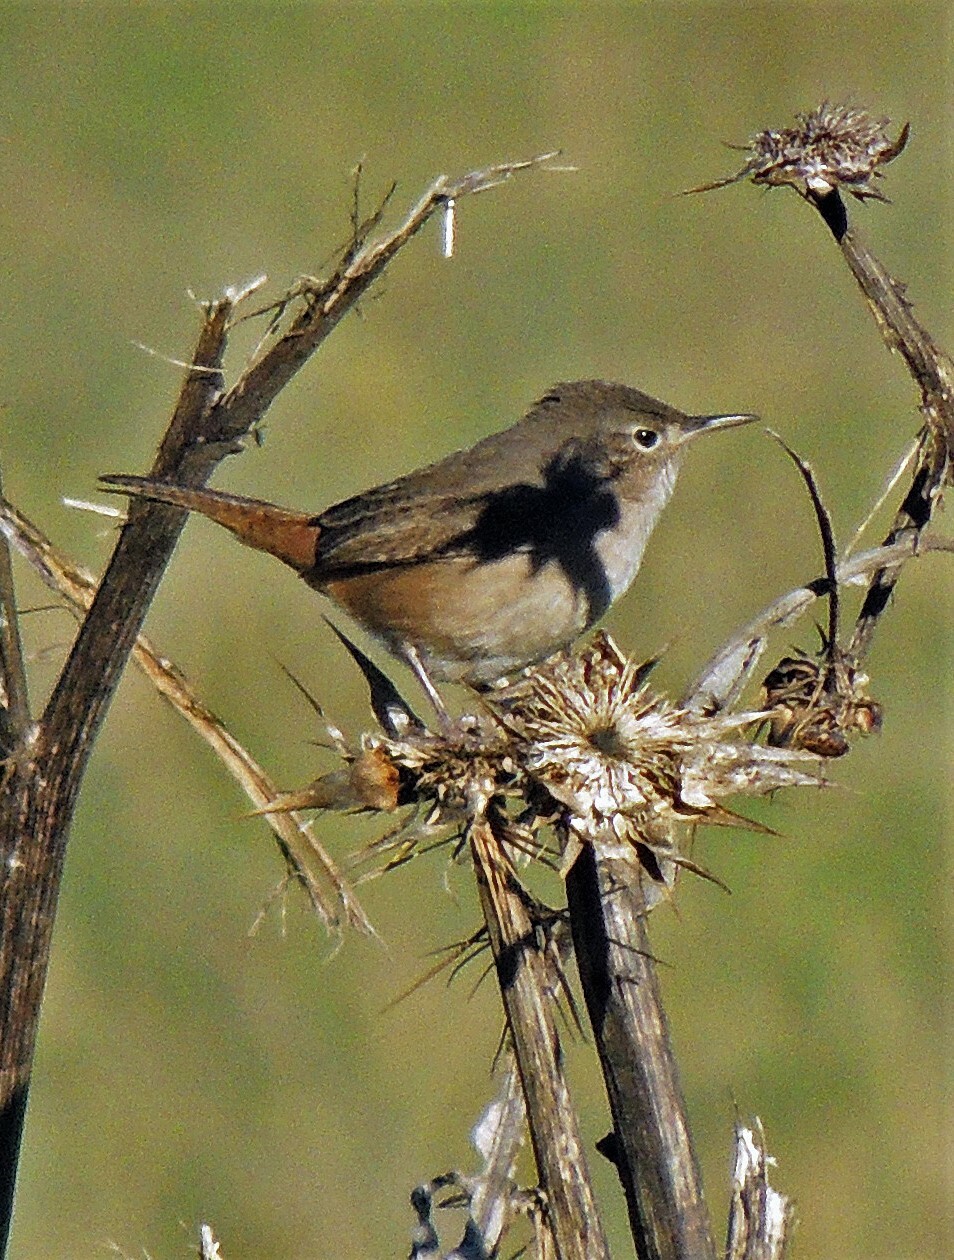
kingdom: Animalia
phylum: Chordata
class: Aves
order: Passeriformes
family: Troglodytidae
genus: Troglodytes
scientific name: Troglodytes aedon
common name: House wren
